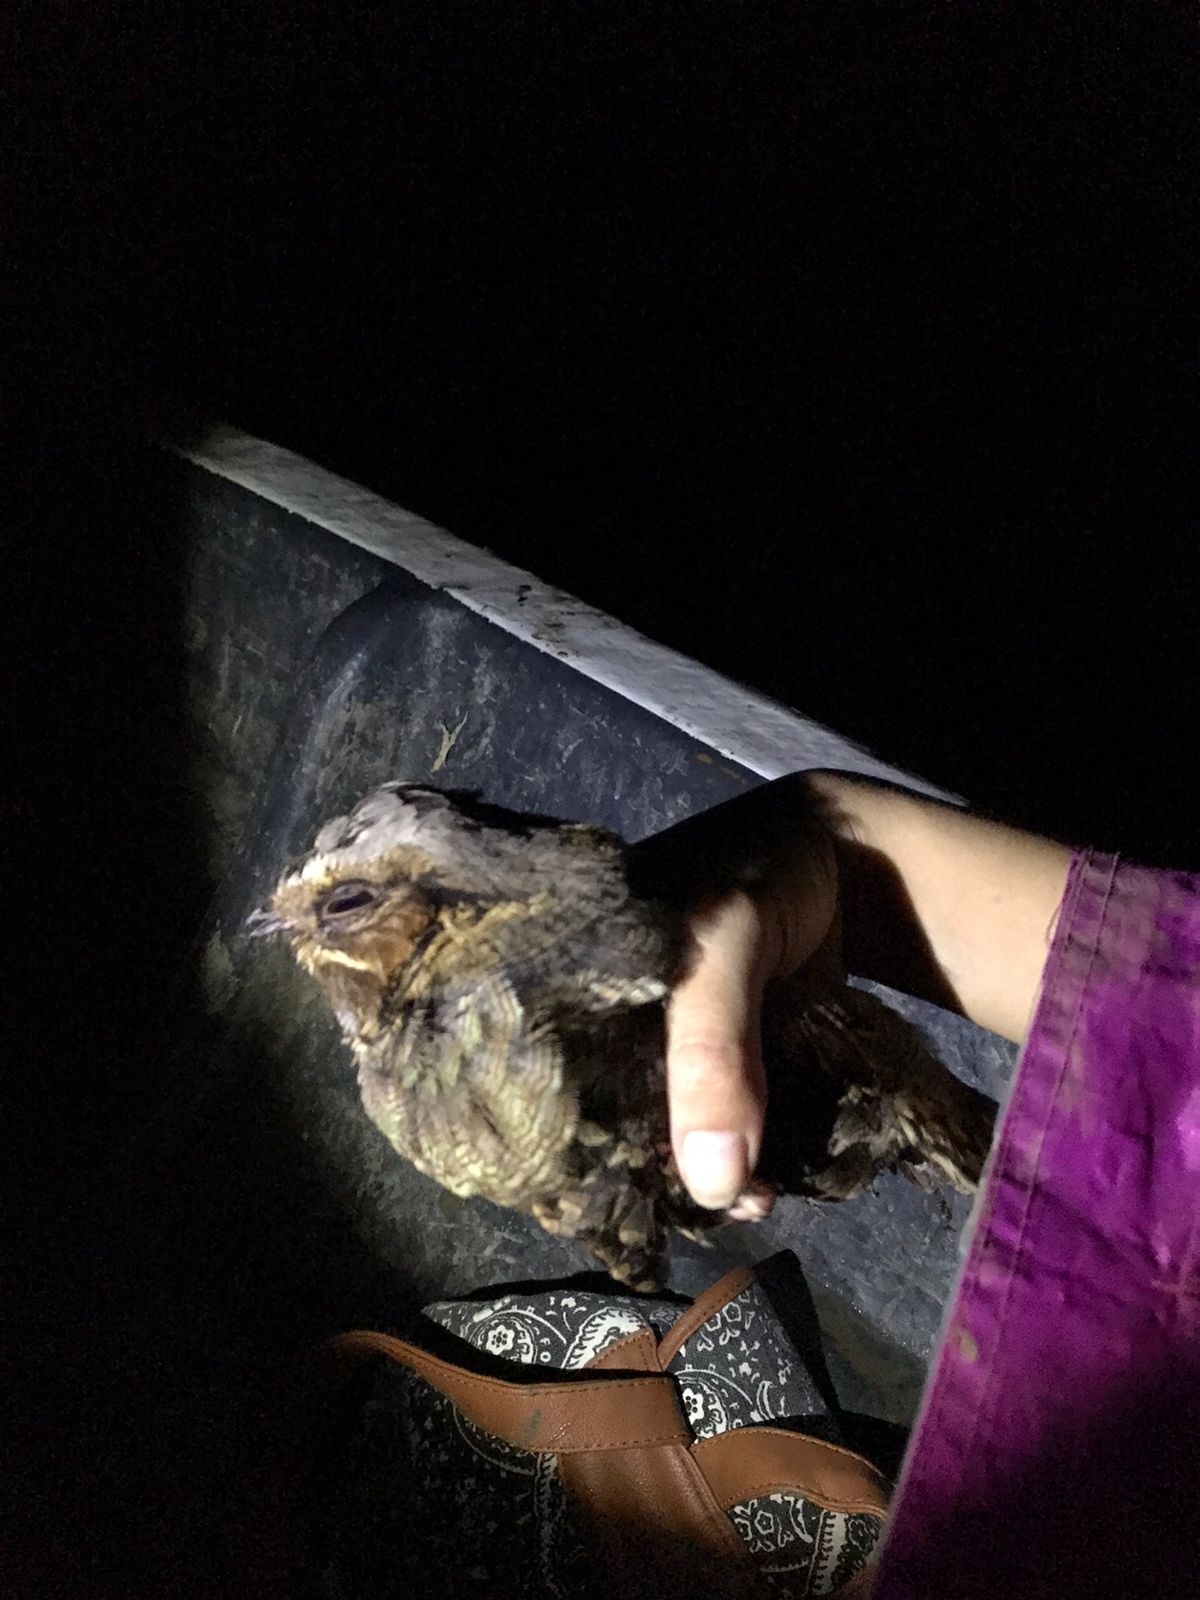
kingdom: Animalia
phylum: Chordata
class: Aves
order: Caprimulgiformes
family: Caprimulgidae
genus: Nyctidromus
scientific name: Nyctidromus albicollis
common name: Pauraque
